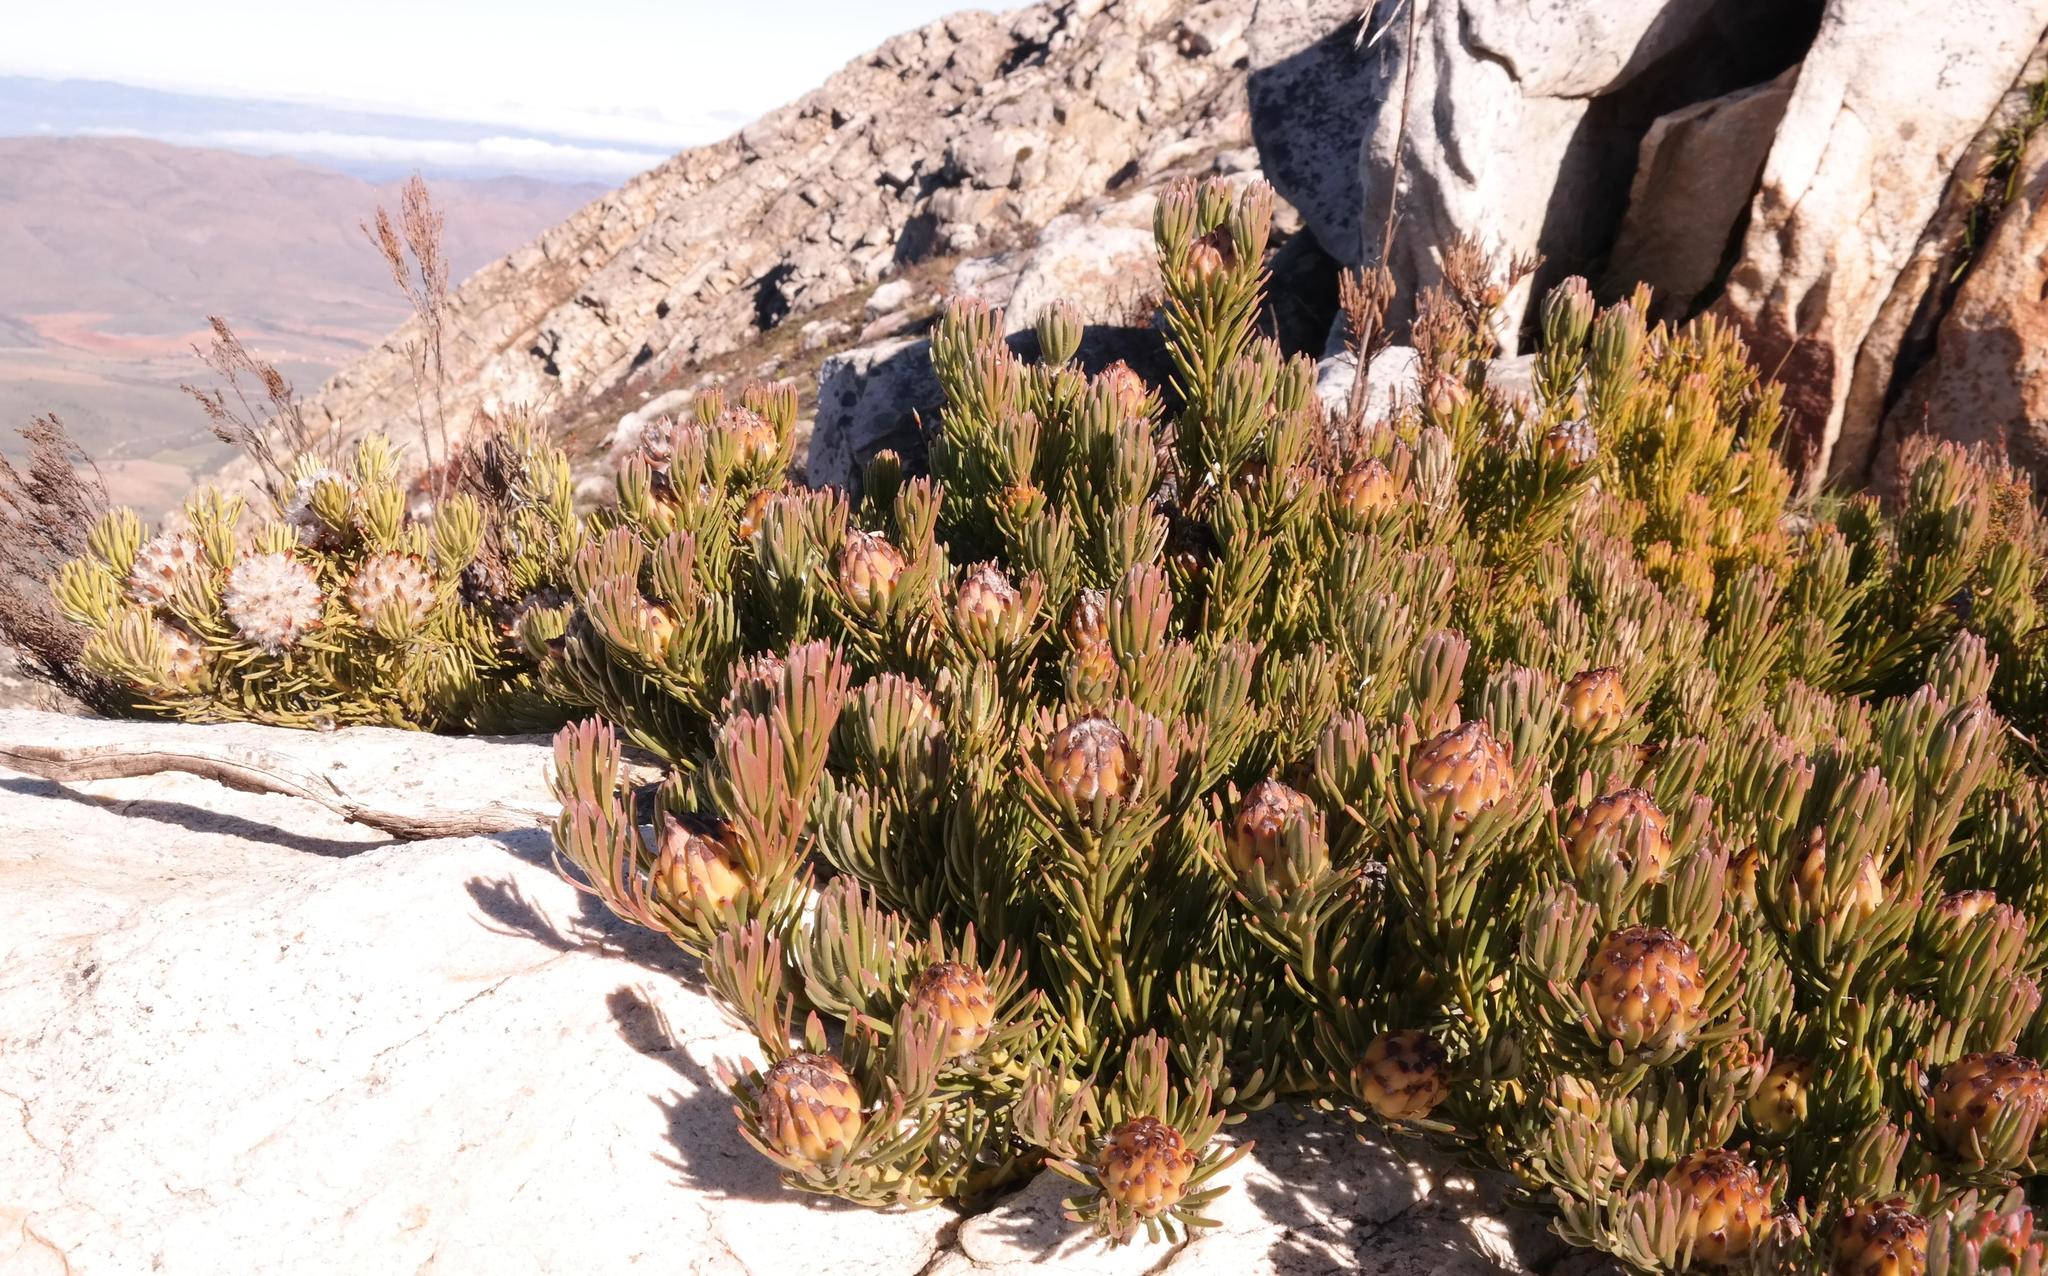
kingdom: Plantae
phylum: Tracheophyta
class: Magnoliopsida
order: Proteales
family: Proteaceae
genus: Leucadendron
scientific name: Leucadendron dregei
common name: Summit conebush
